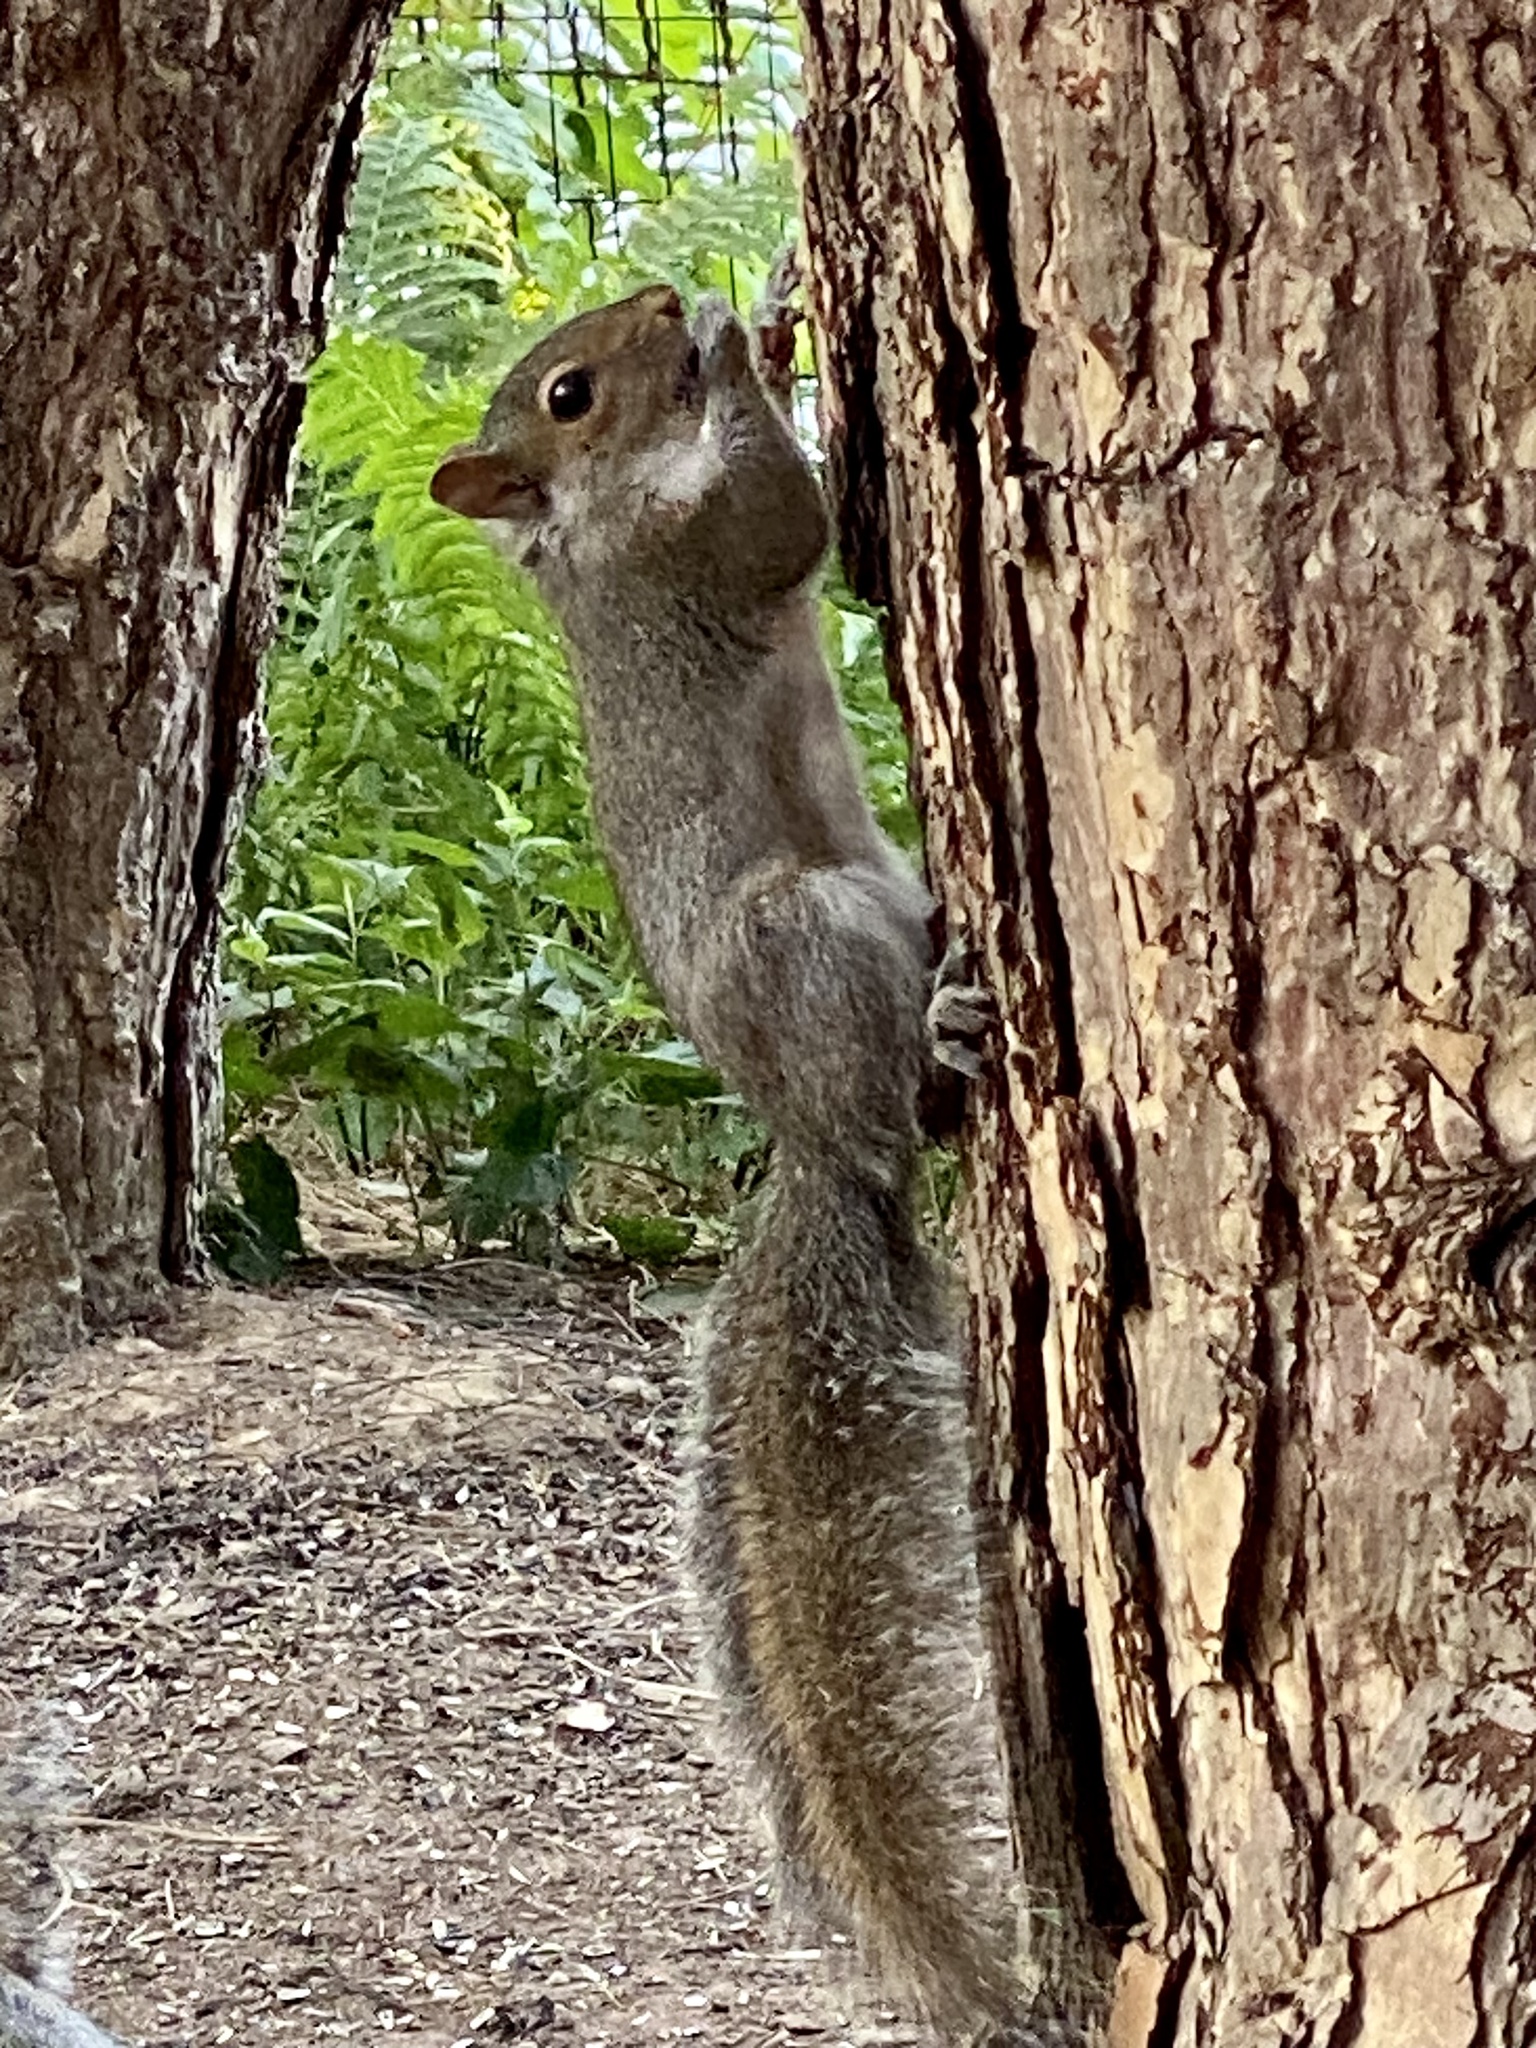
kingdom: Animalia
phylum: Chordata
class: Mammalia
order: Rodentia
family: Sciuridae
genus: Sciurus
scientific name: Sciurus carolinensis
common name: Eastern gray squirrel
